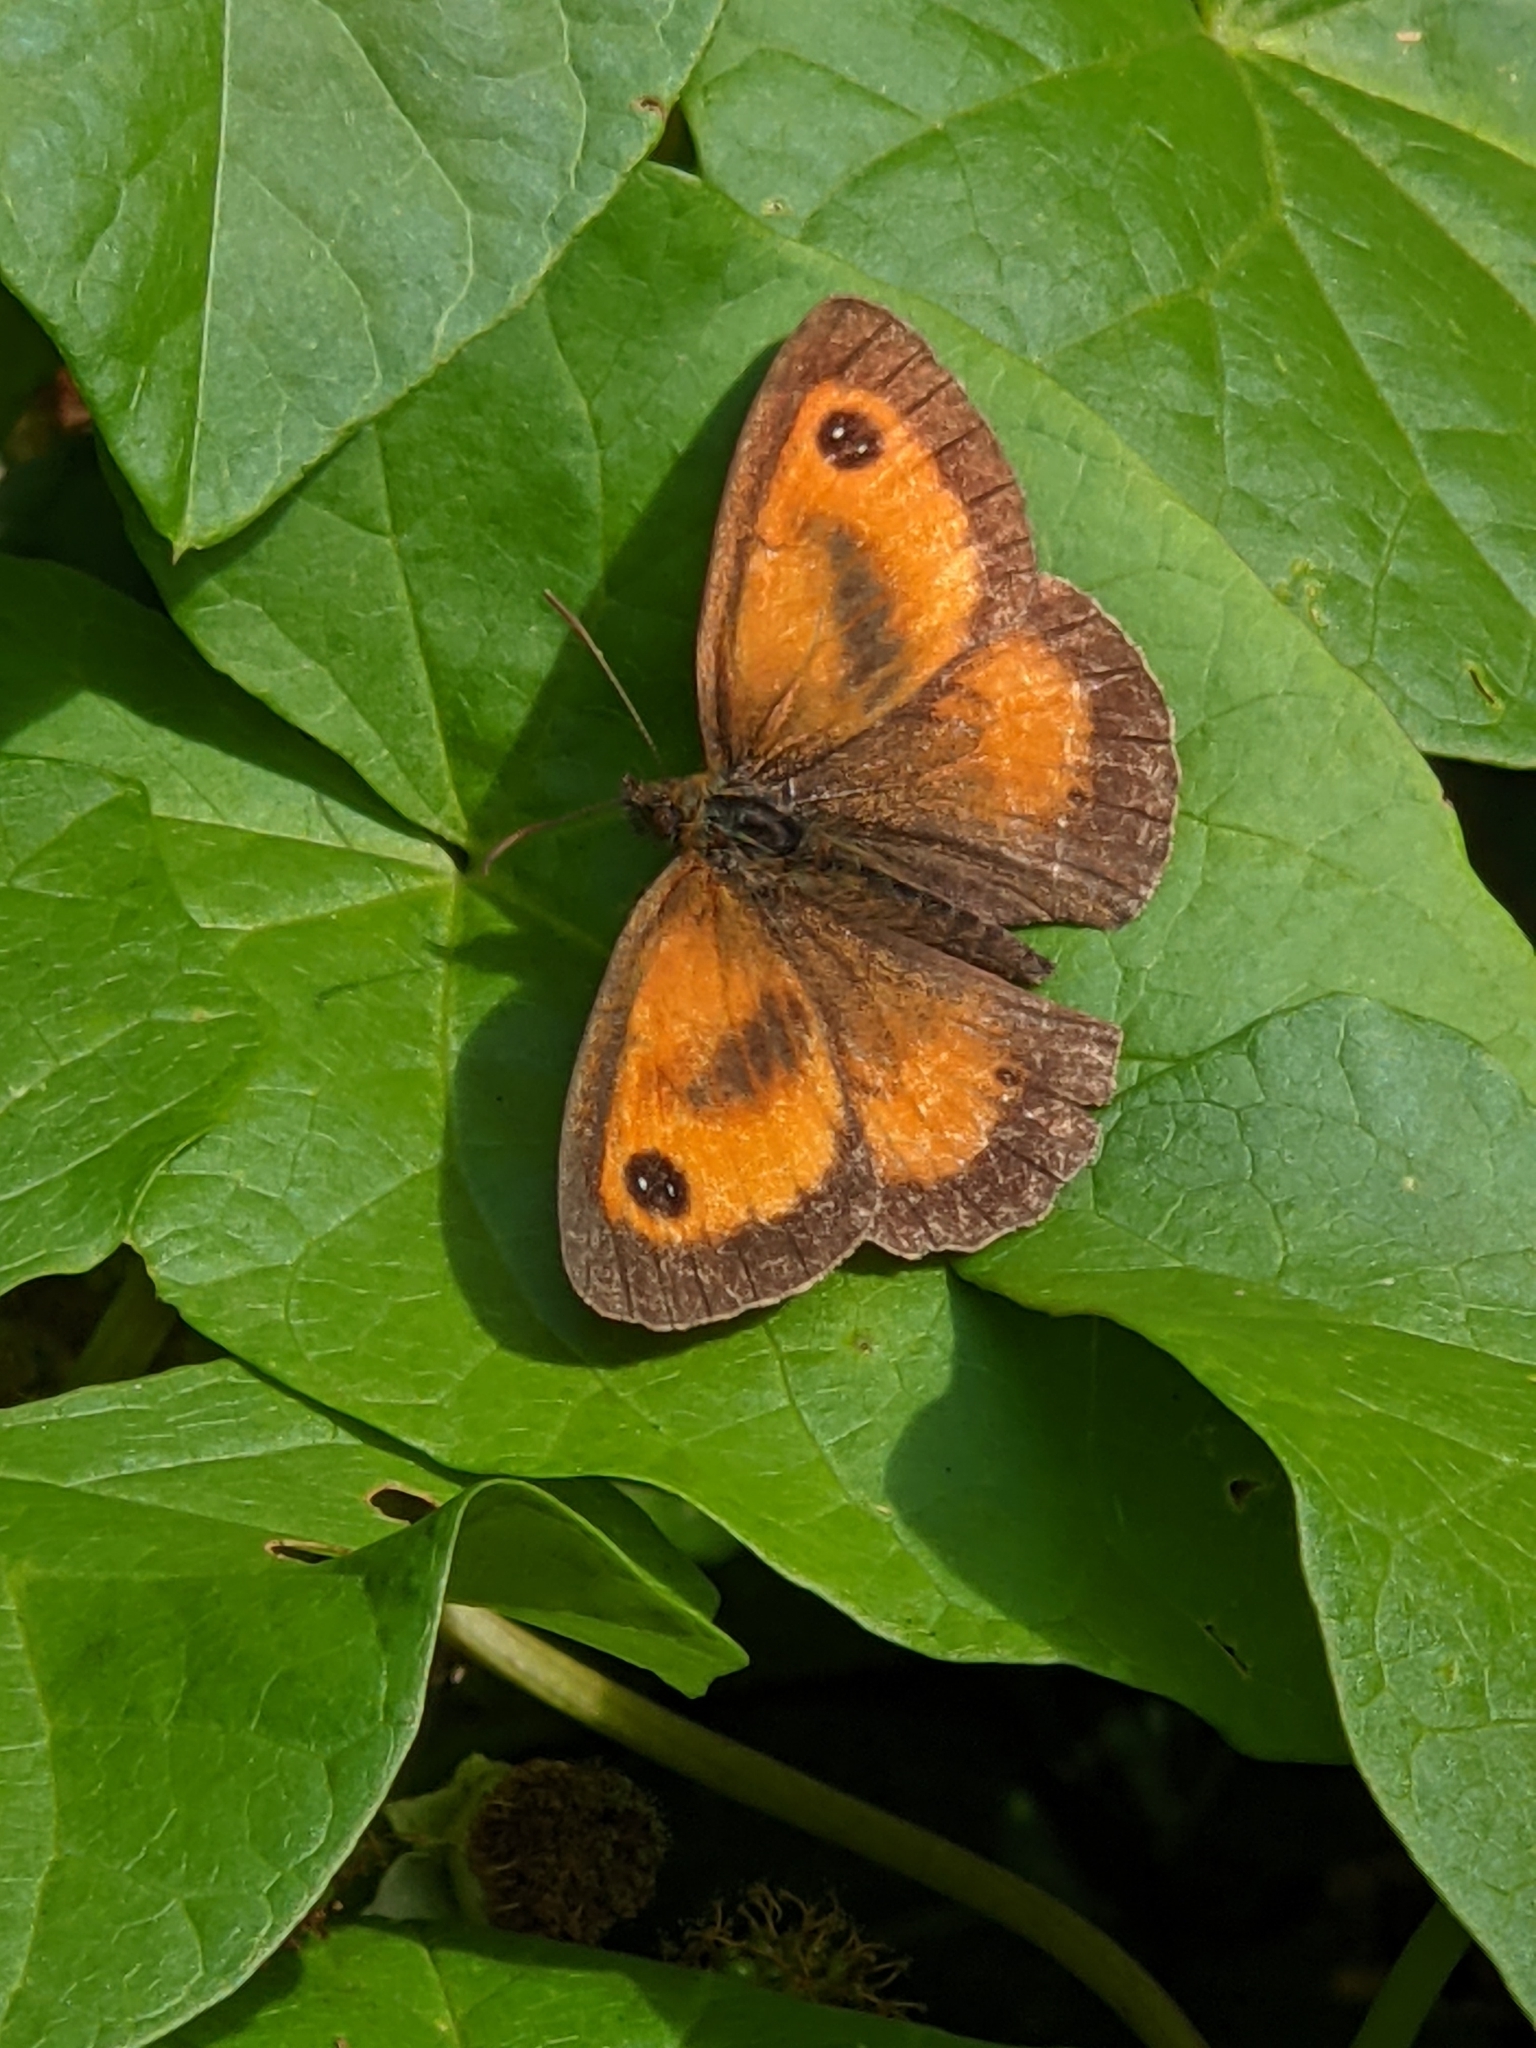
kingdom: Animalia
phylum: Arthropoda
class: Insecta
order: Lepidoptera
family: Nymphalidae
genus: Pyronia
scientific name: Pyronia tithonus
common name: Gatekeeper
